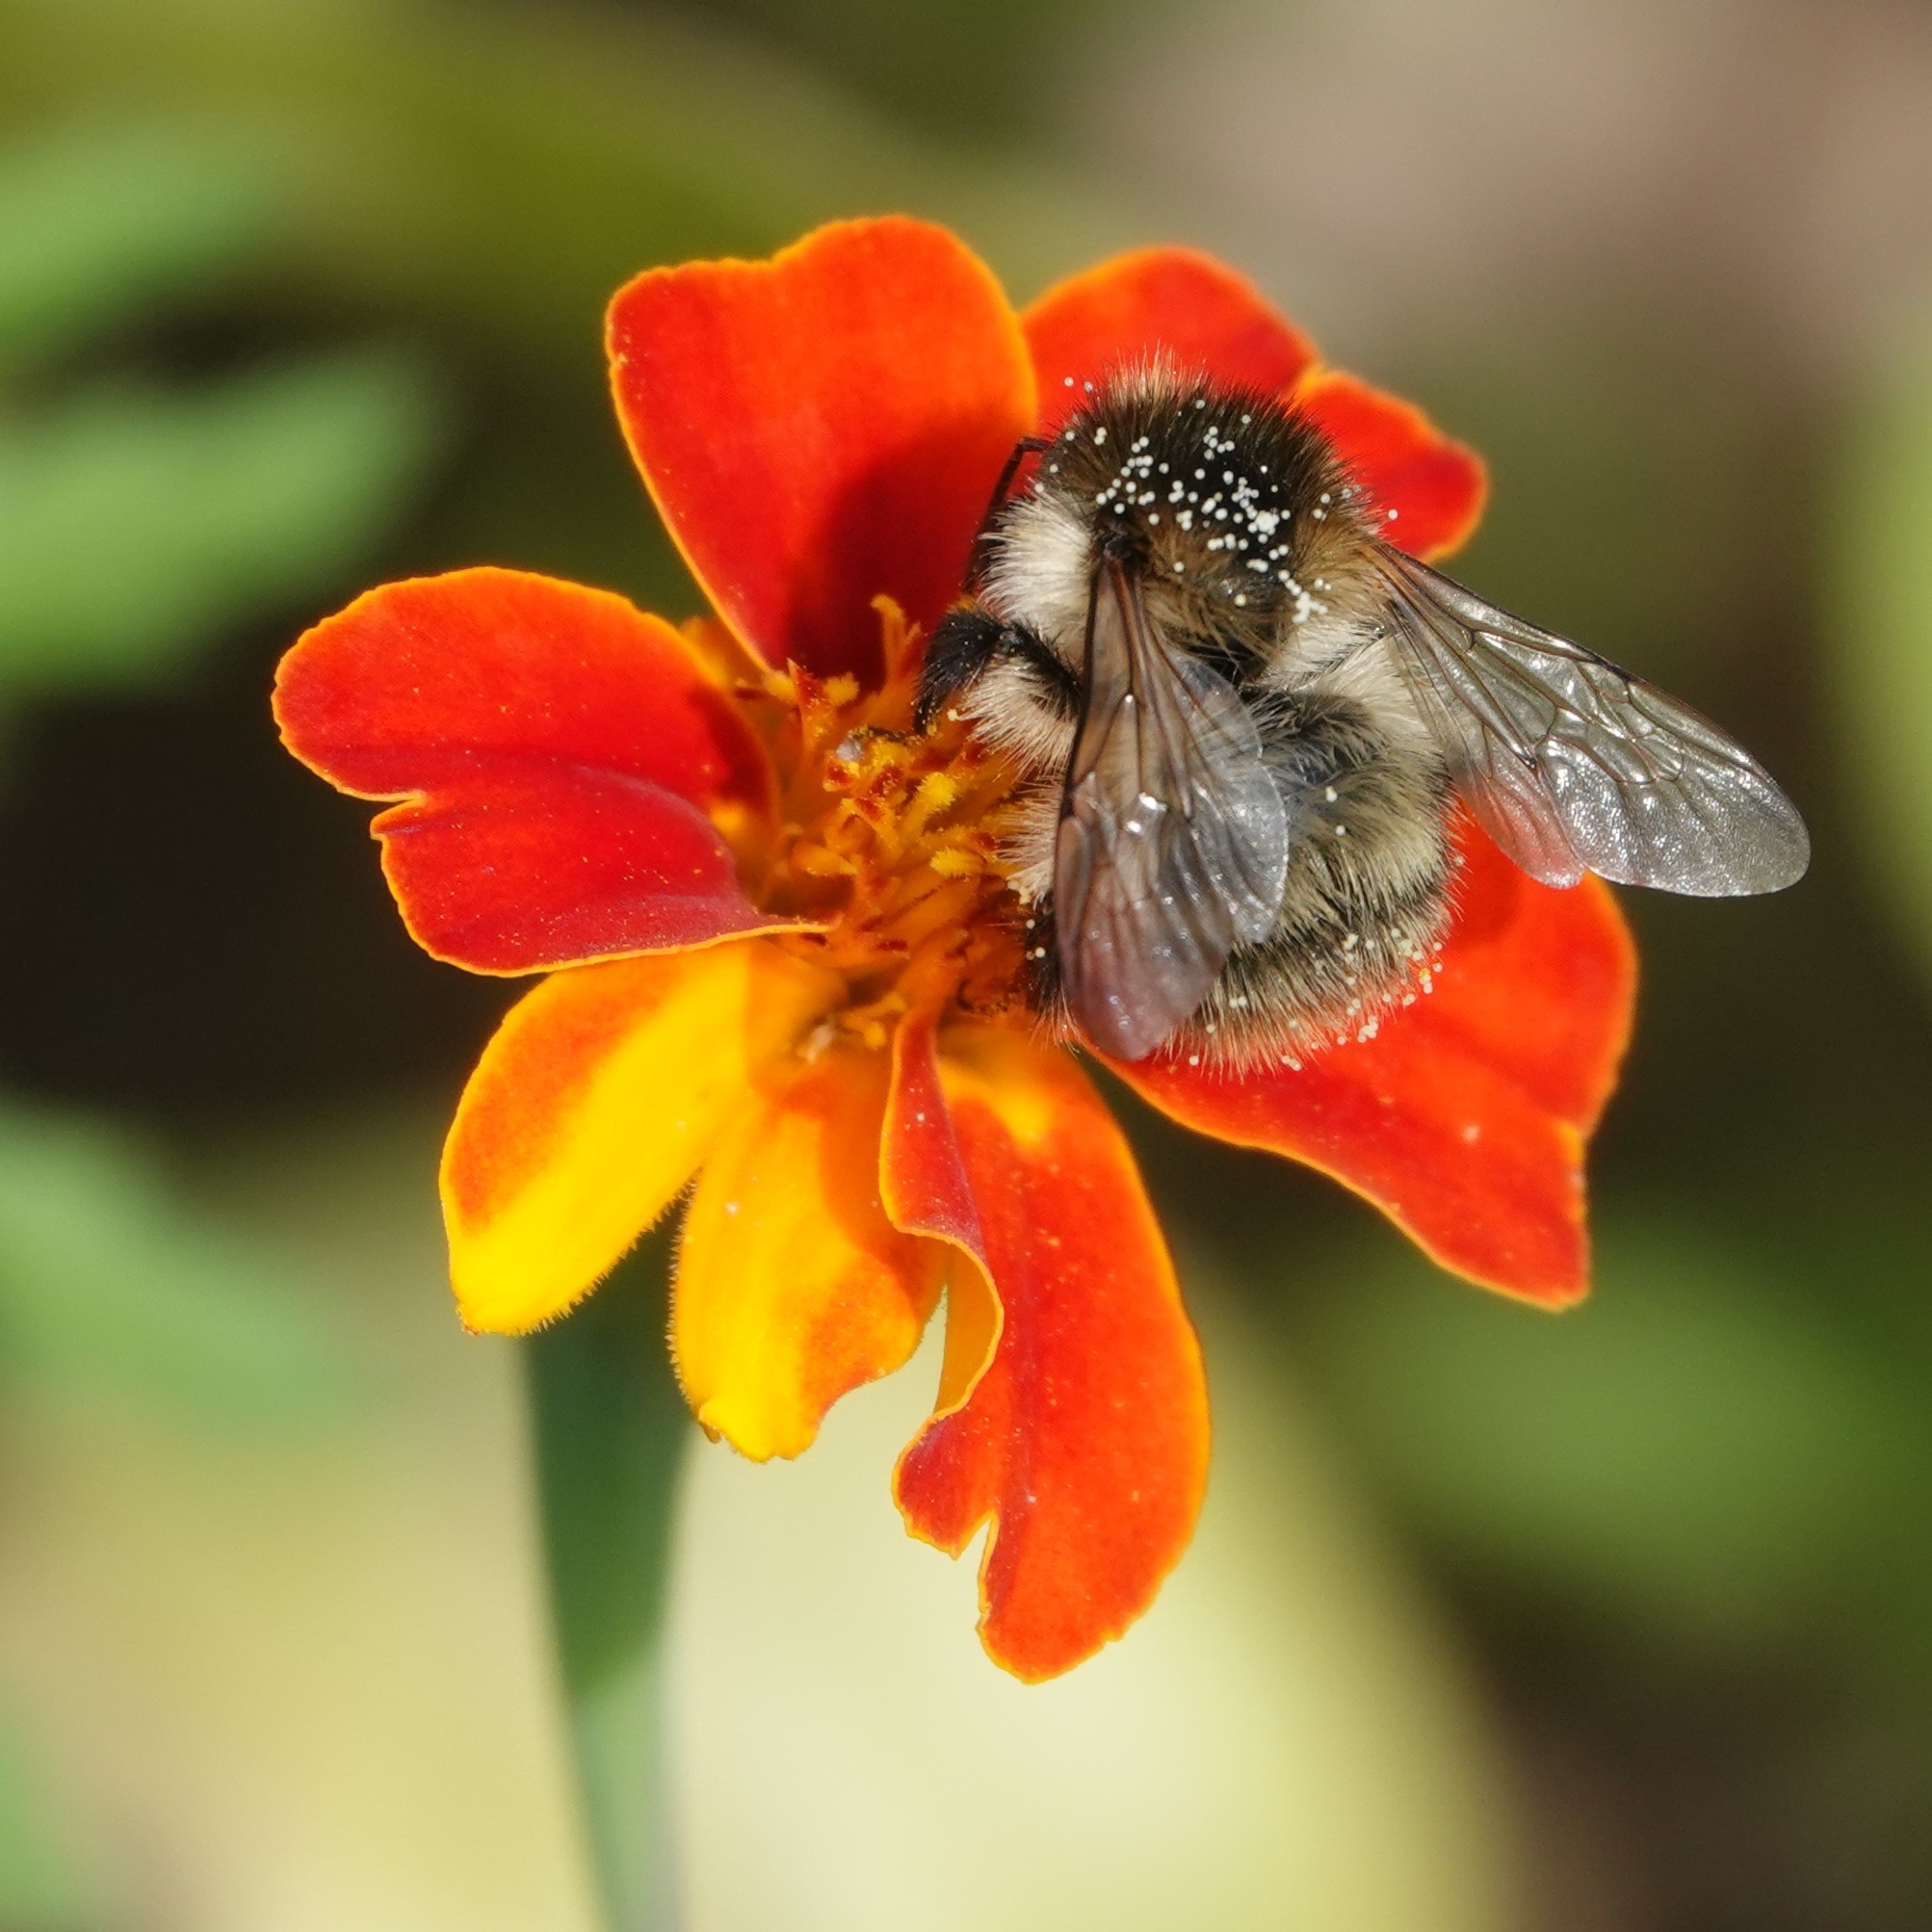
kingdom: Animalia
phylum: Arthropoda
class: Insecta
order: Hymenoptera
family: Apidae
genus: Bombus
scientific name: Bombus pascuorum
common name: Common carder bee
